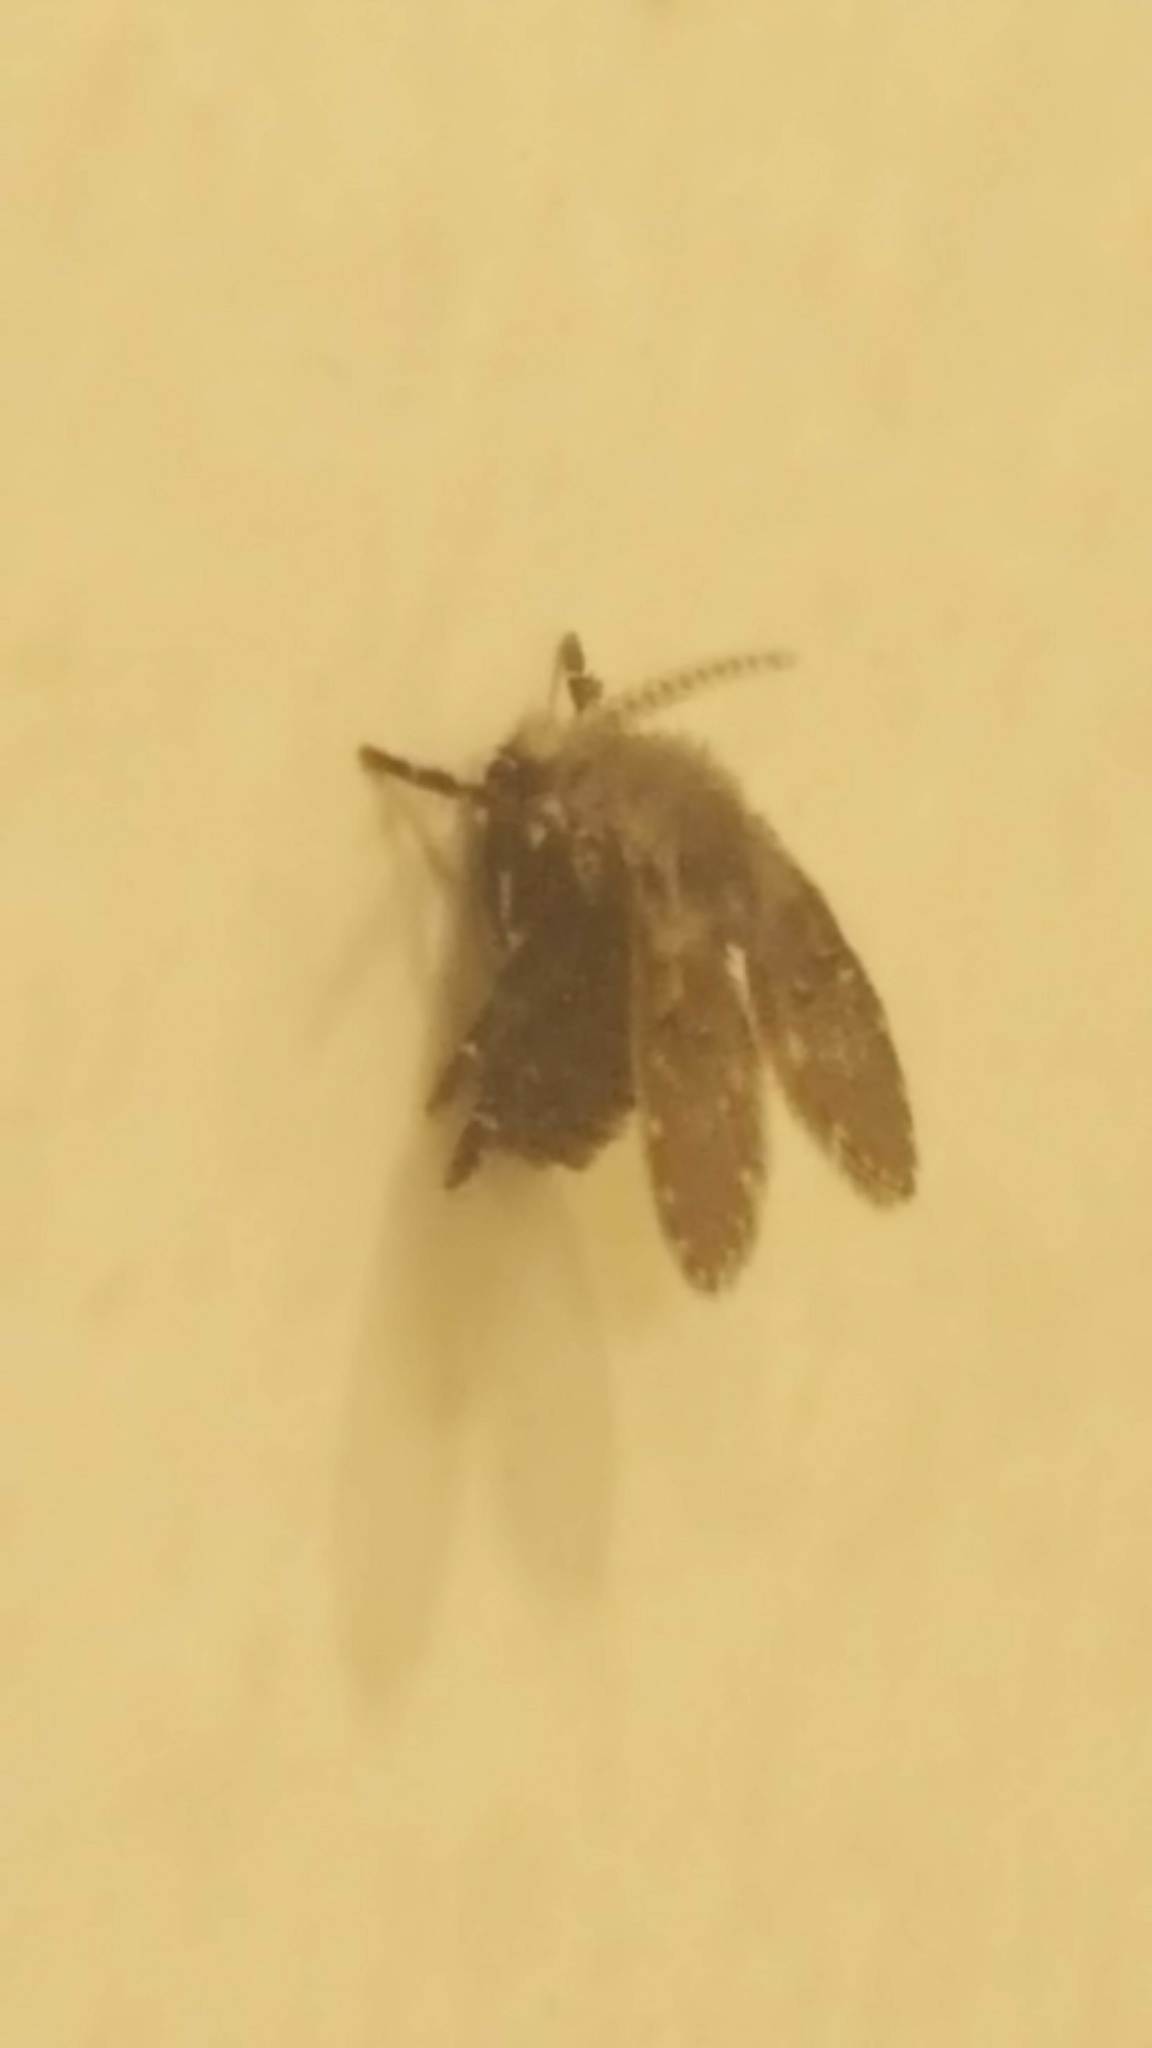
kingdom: Animalia
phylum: Arthropoda
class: Insecta
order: Diptera
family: Psychodidae
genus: Clogmia
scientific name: Clogmia albipunctatus
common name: White-spotted moth fly
